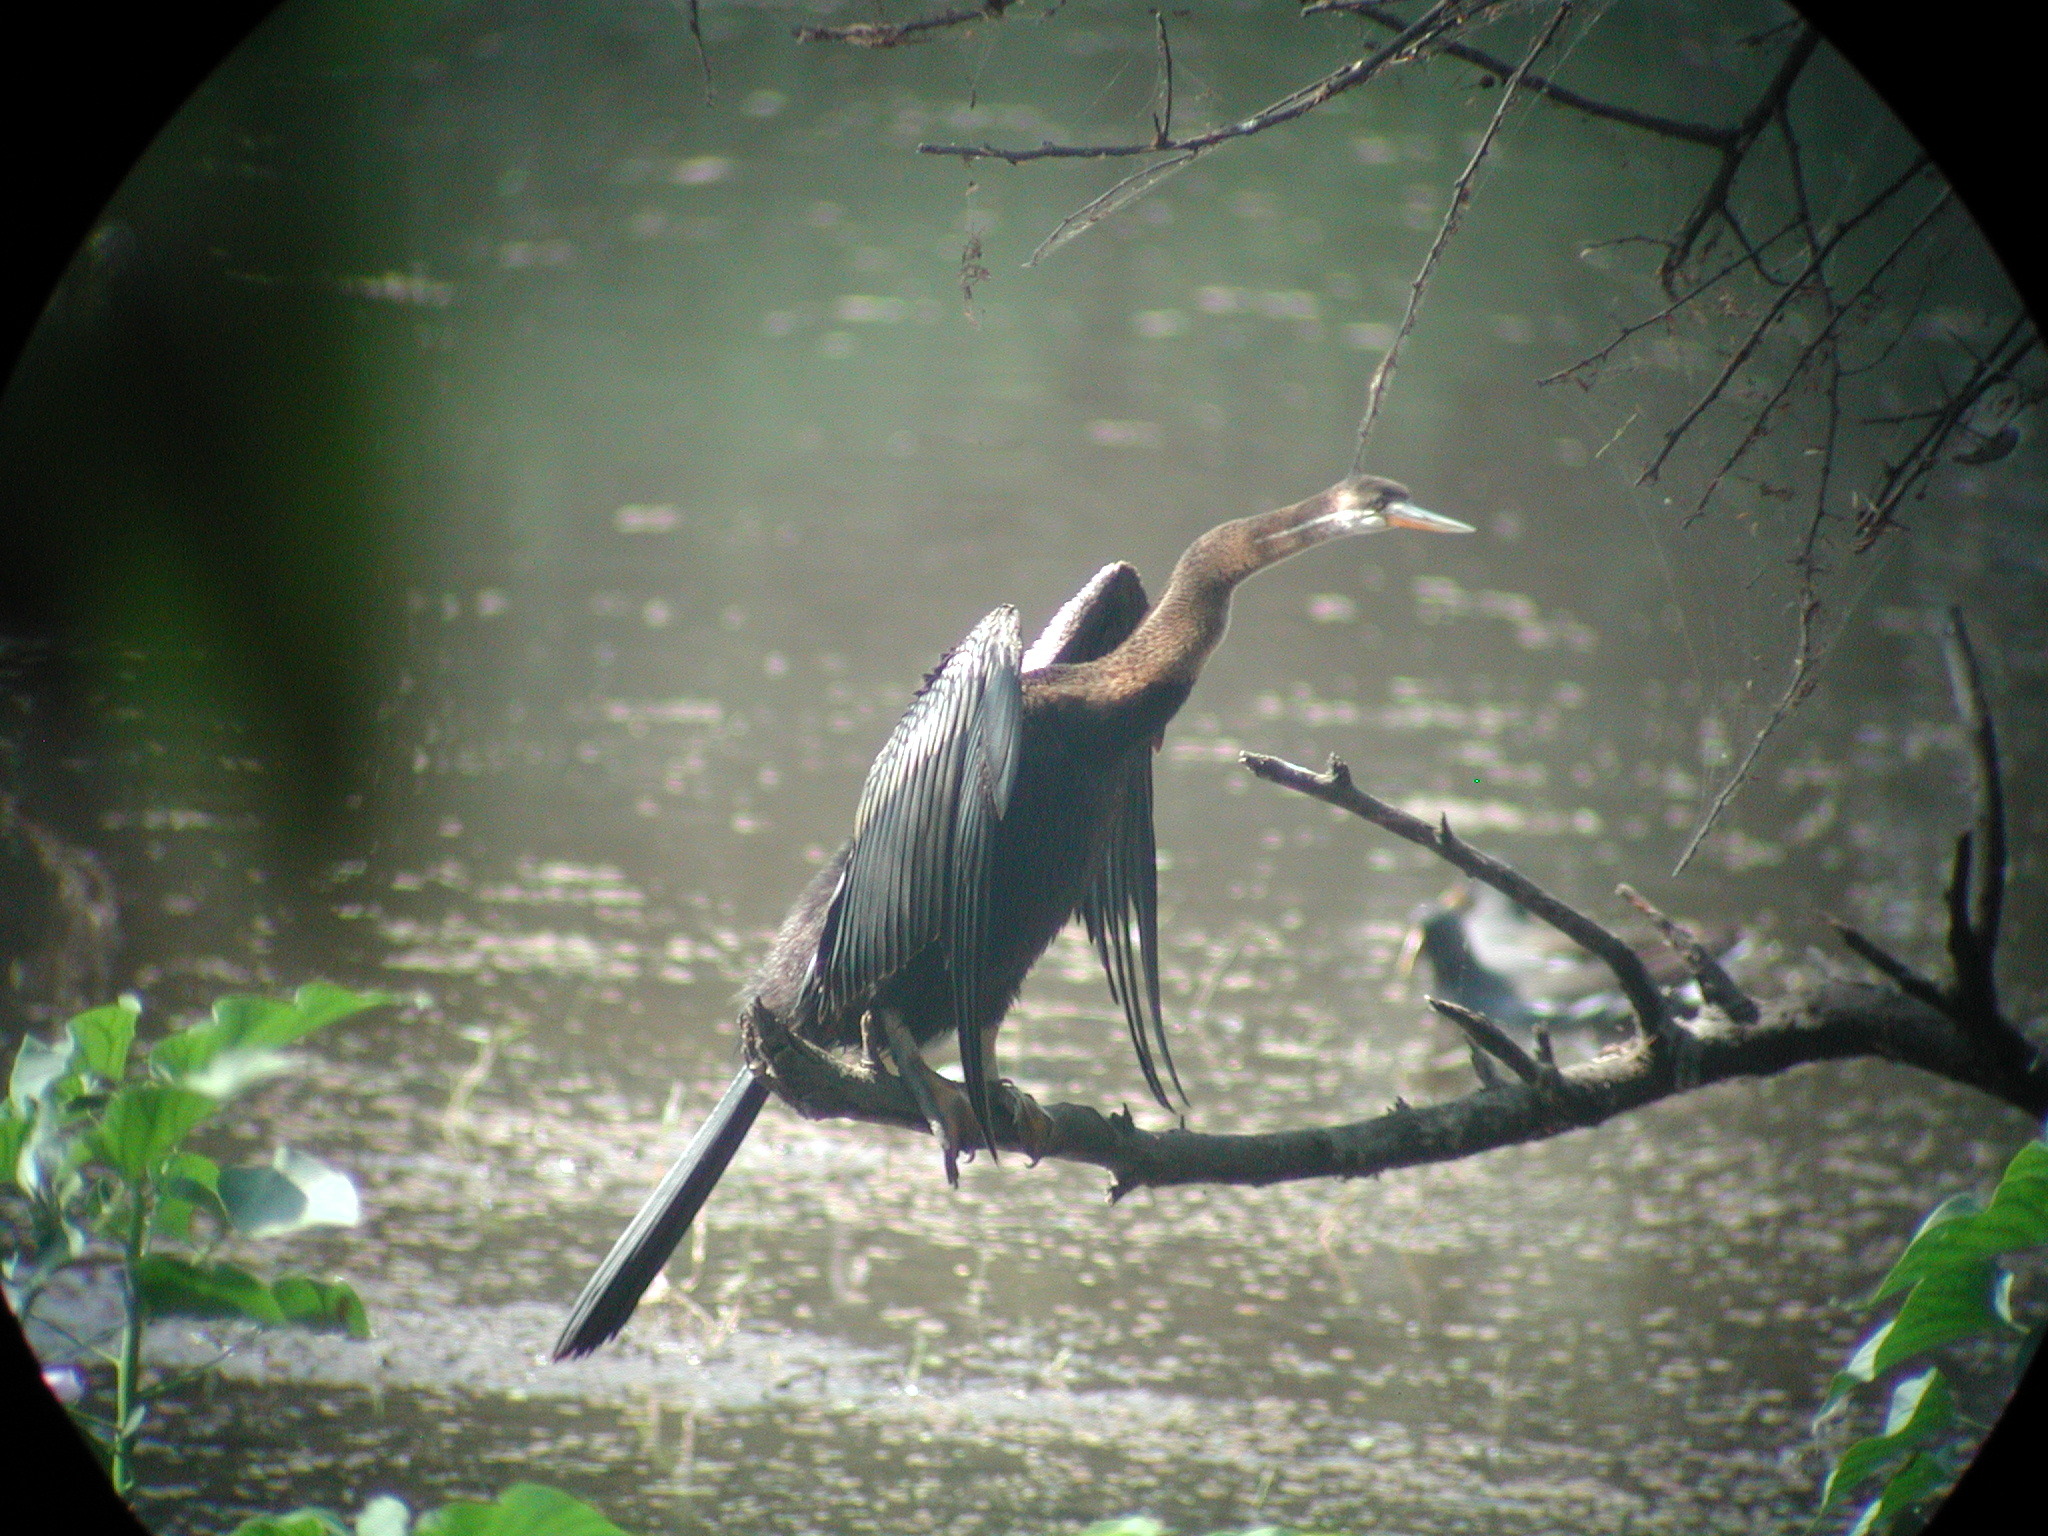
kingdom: Animalia
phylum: Chordata
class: Aves
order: Suliformes
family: Anhingidae
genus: Anhinga
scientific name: Anhinga melanogaster
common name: Oriental darter
